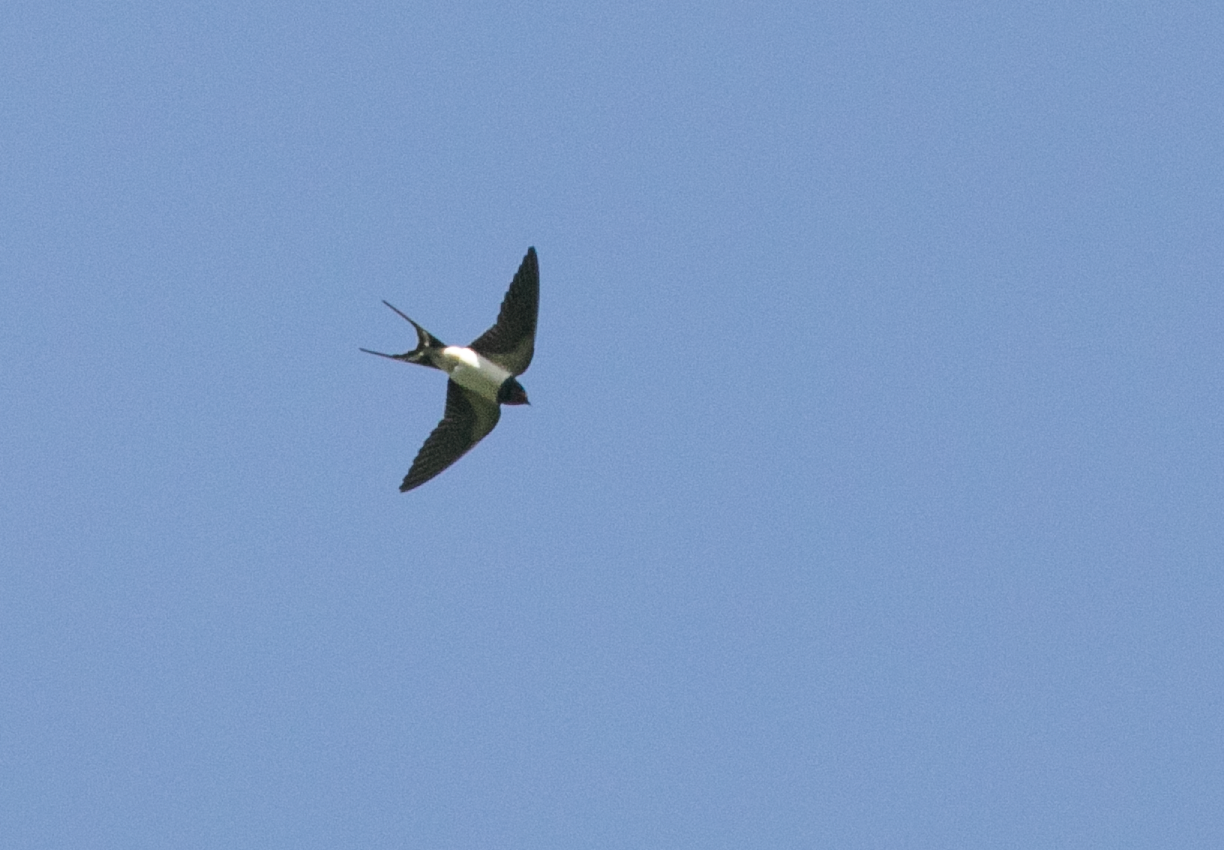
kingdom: Animalia
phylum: Chordata
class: Aves
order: Passeriformes
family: Hirundinidae
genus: Hirundo
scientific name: Hirundo rustica
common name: Barn swallow
